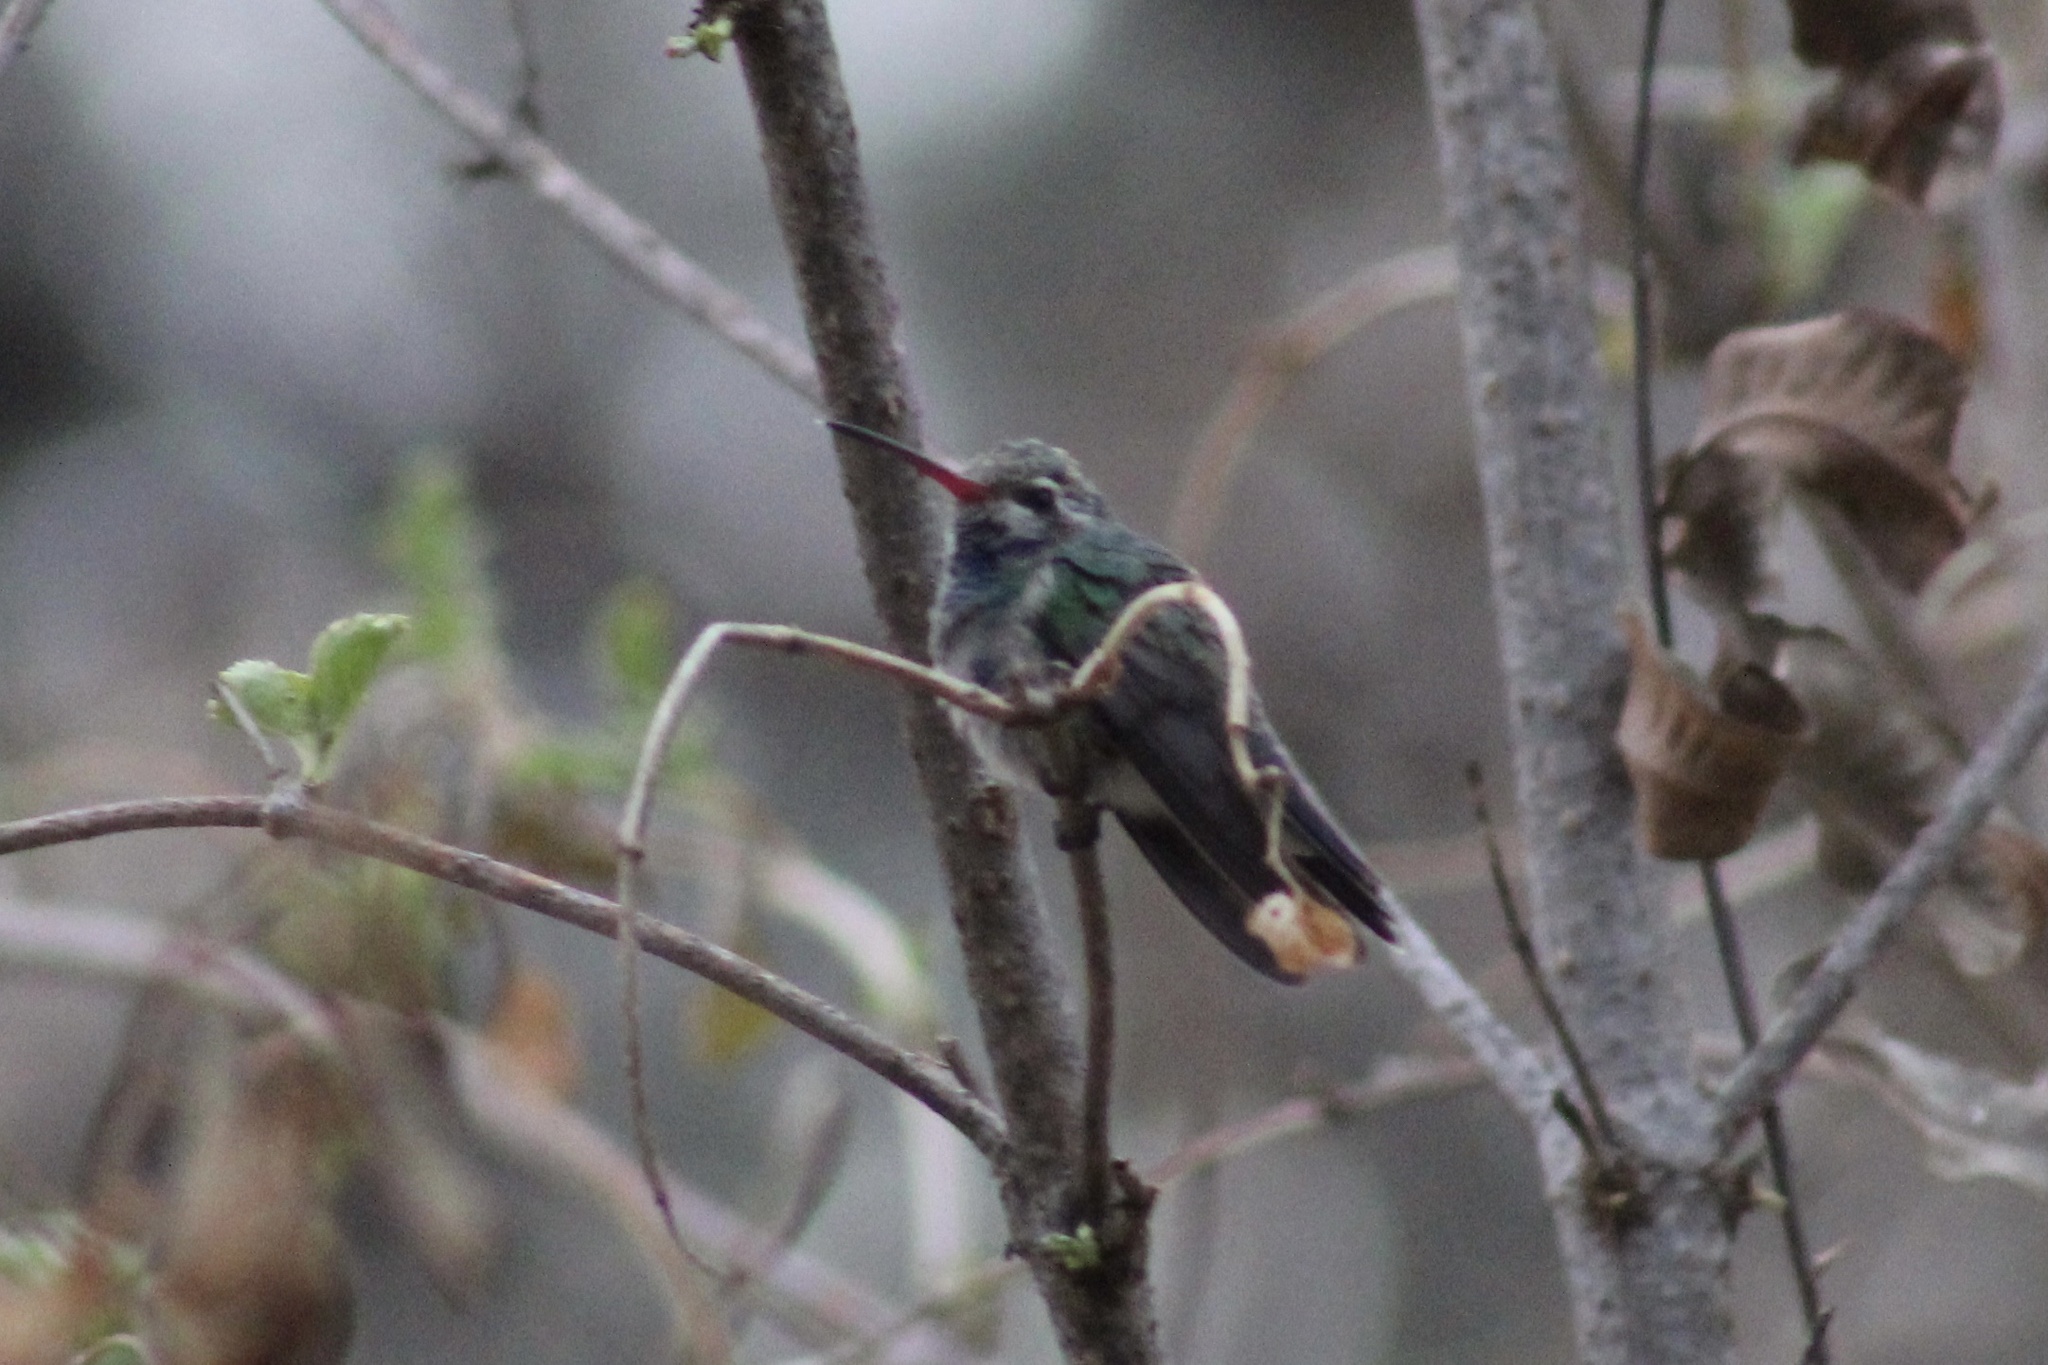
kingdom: Animalia
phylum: Chordata
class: Aves
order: Apodiformes
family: Trochilidae
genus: Cynanthus
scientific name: Cynanthus latirostris
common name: Broad-billed hummingbird
